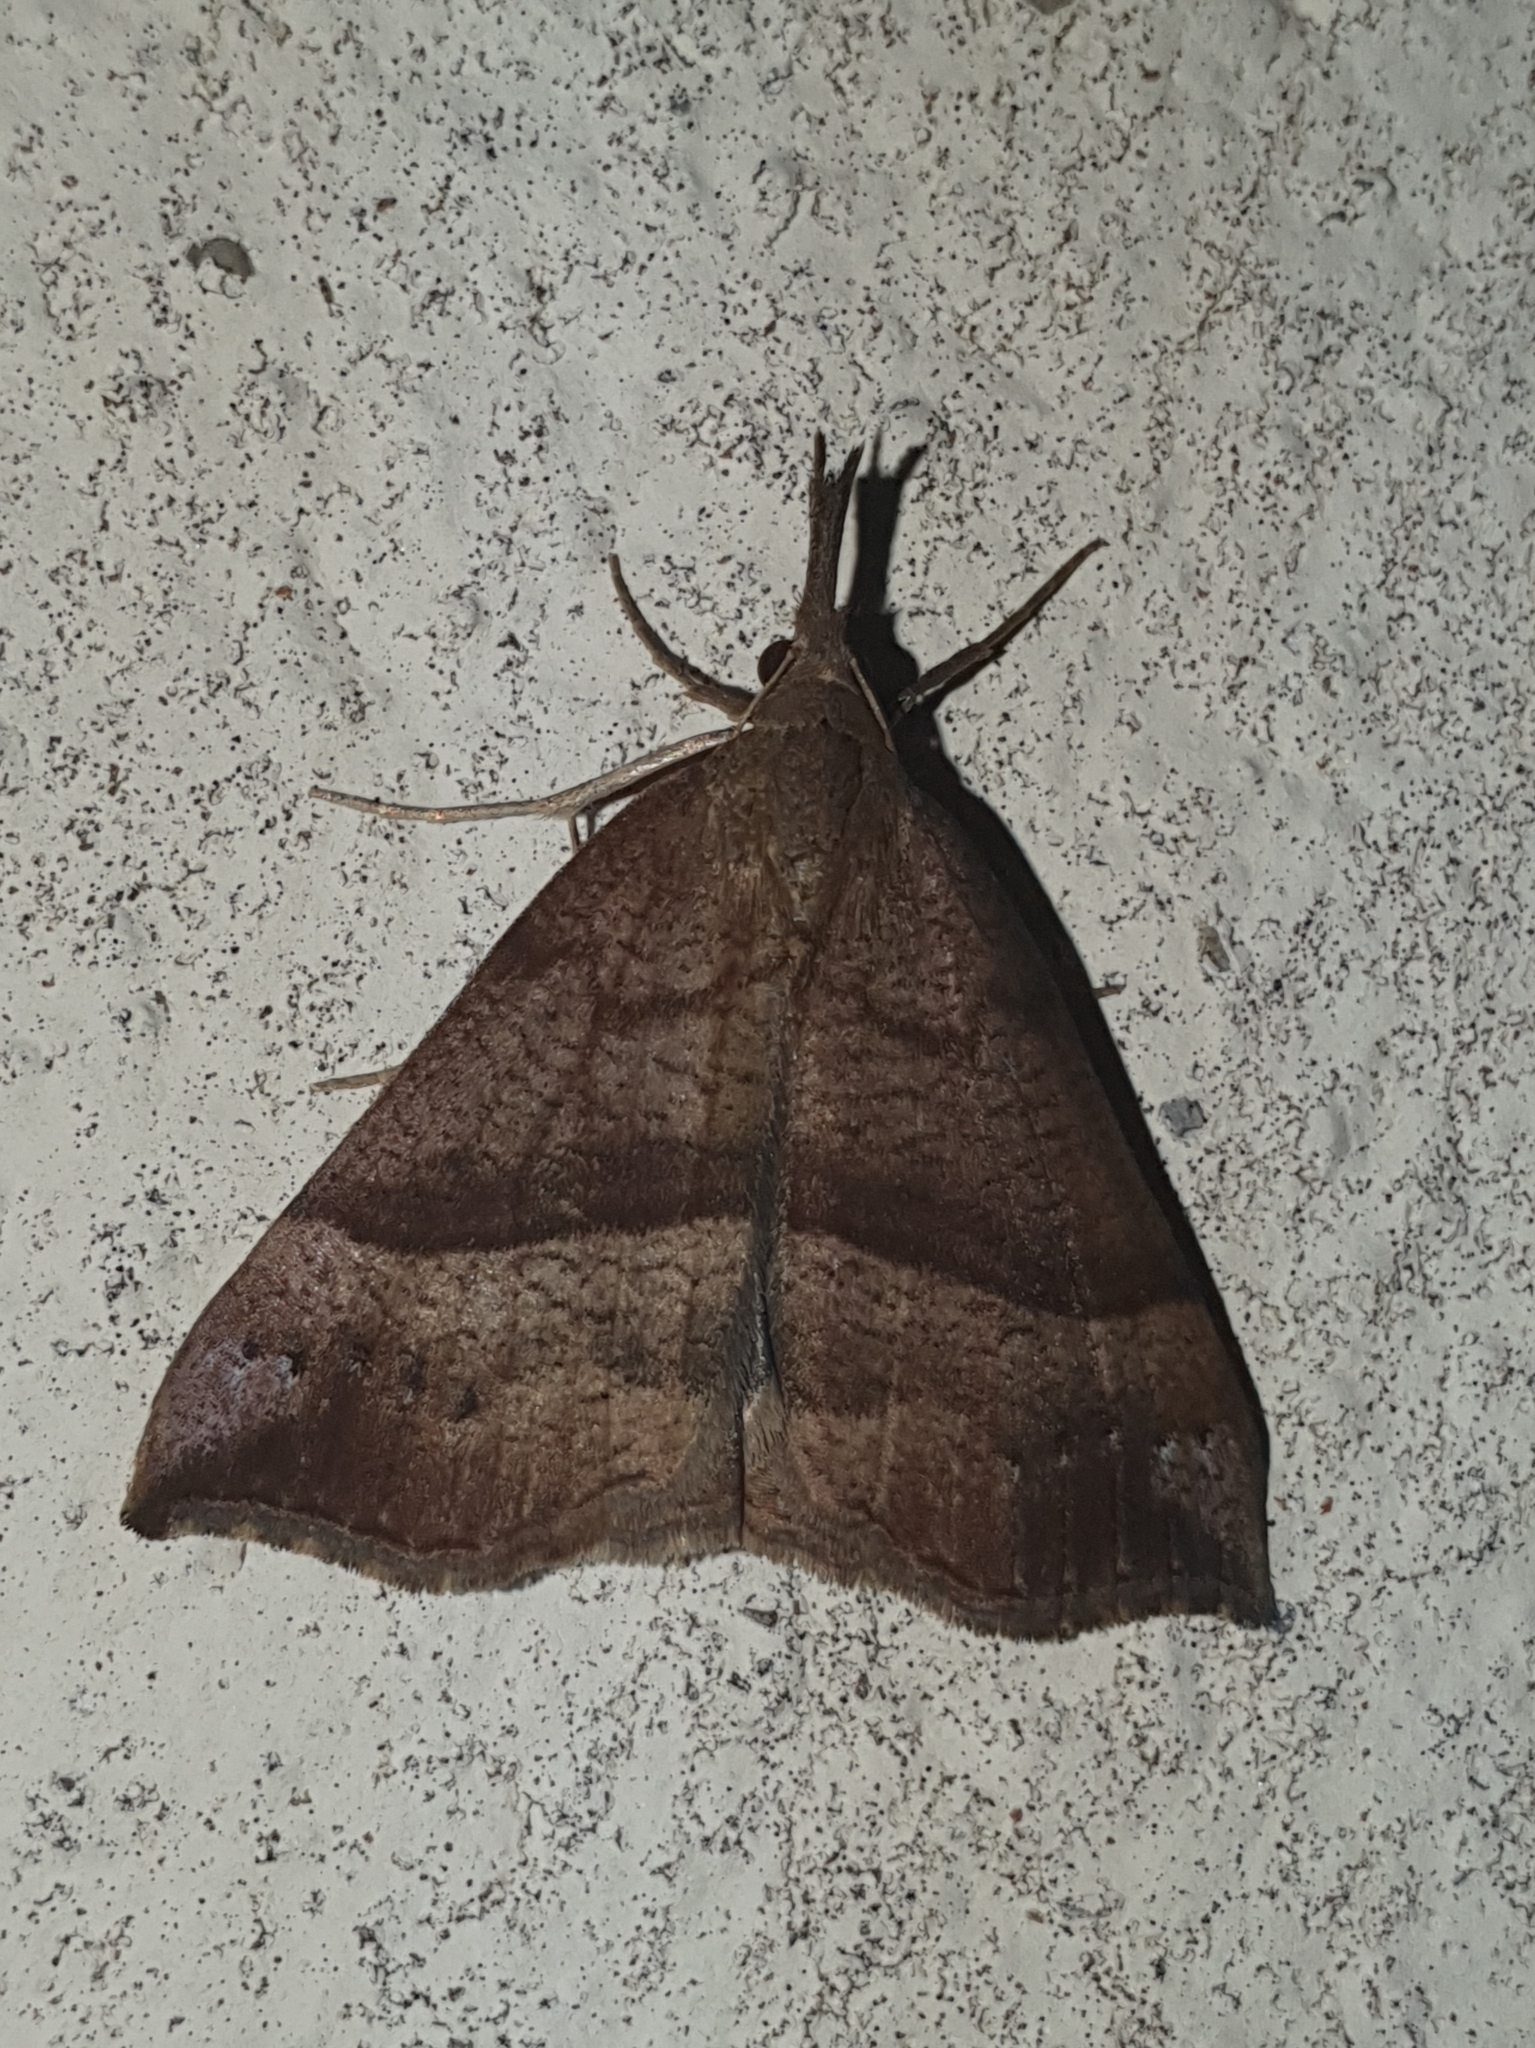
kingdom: Animalia
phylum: Arthropoda
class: Insecta
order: Lepidoptera
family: Erebidae
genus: Hypena
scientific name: Hypena proboscidalis
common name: Snout
